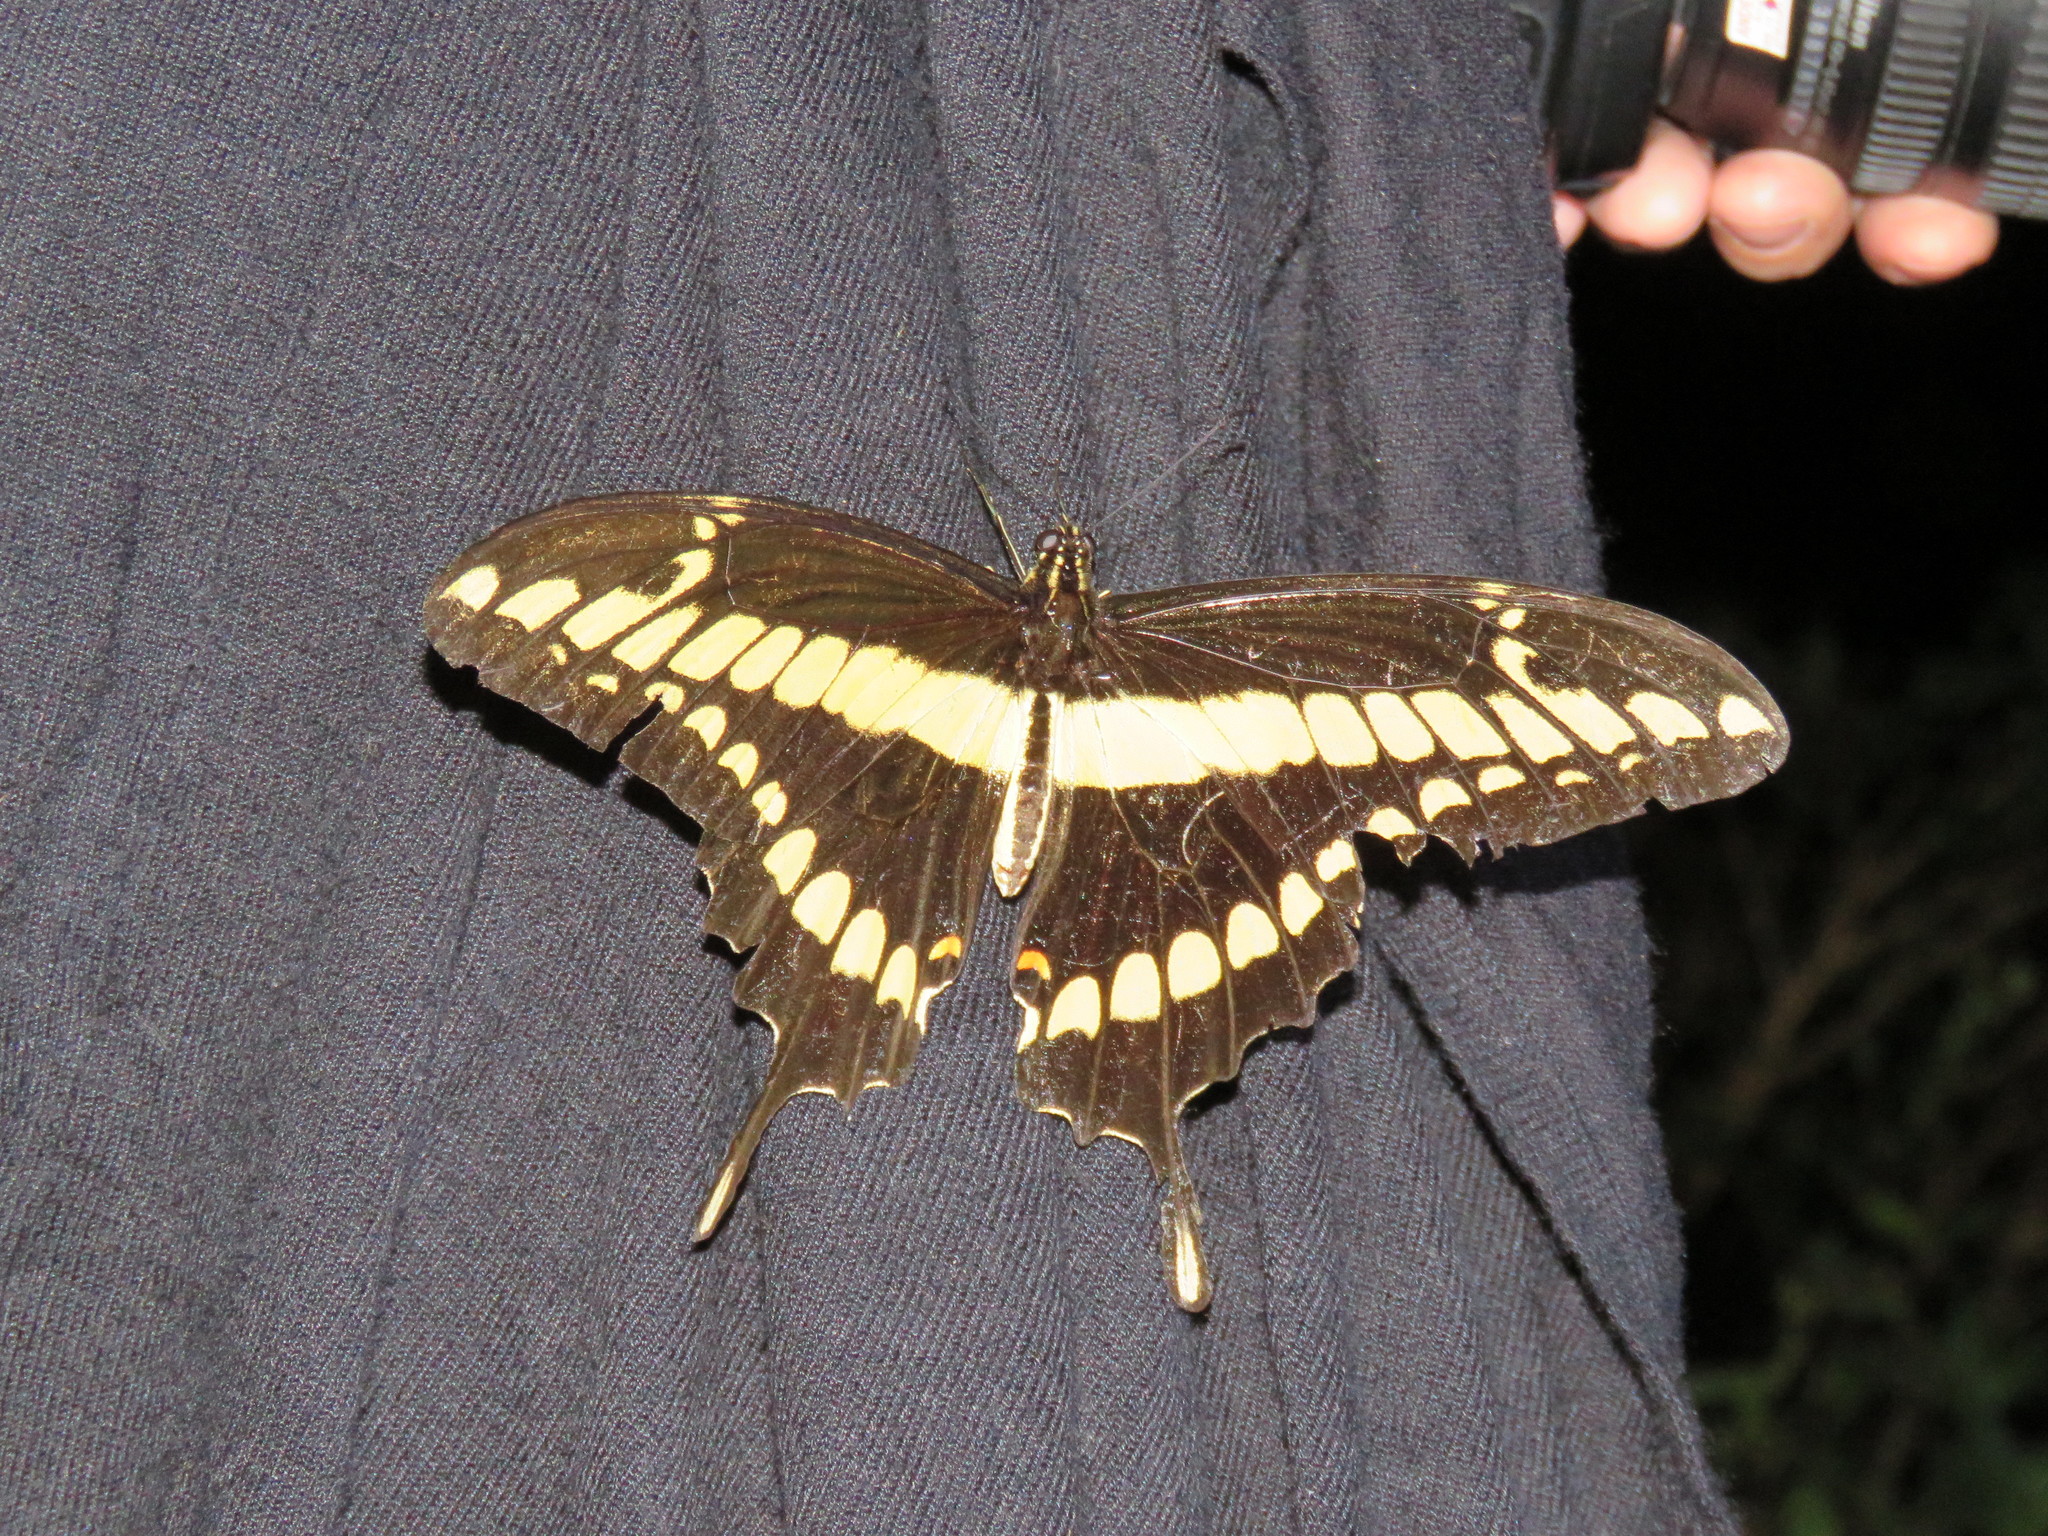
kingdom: Animalia
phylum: Arthropoda
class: Insecta
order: Lepidoptera
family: Papilionidae
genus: Papilio
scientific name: Papilio thoas
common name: King swallowtail
